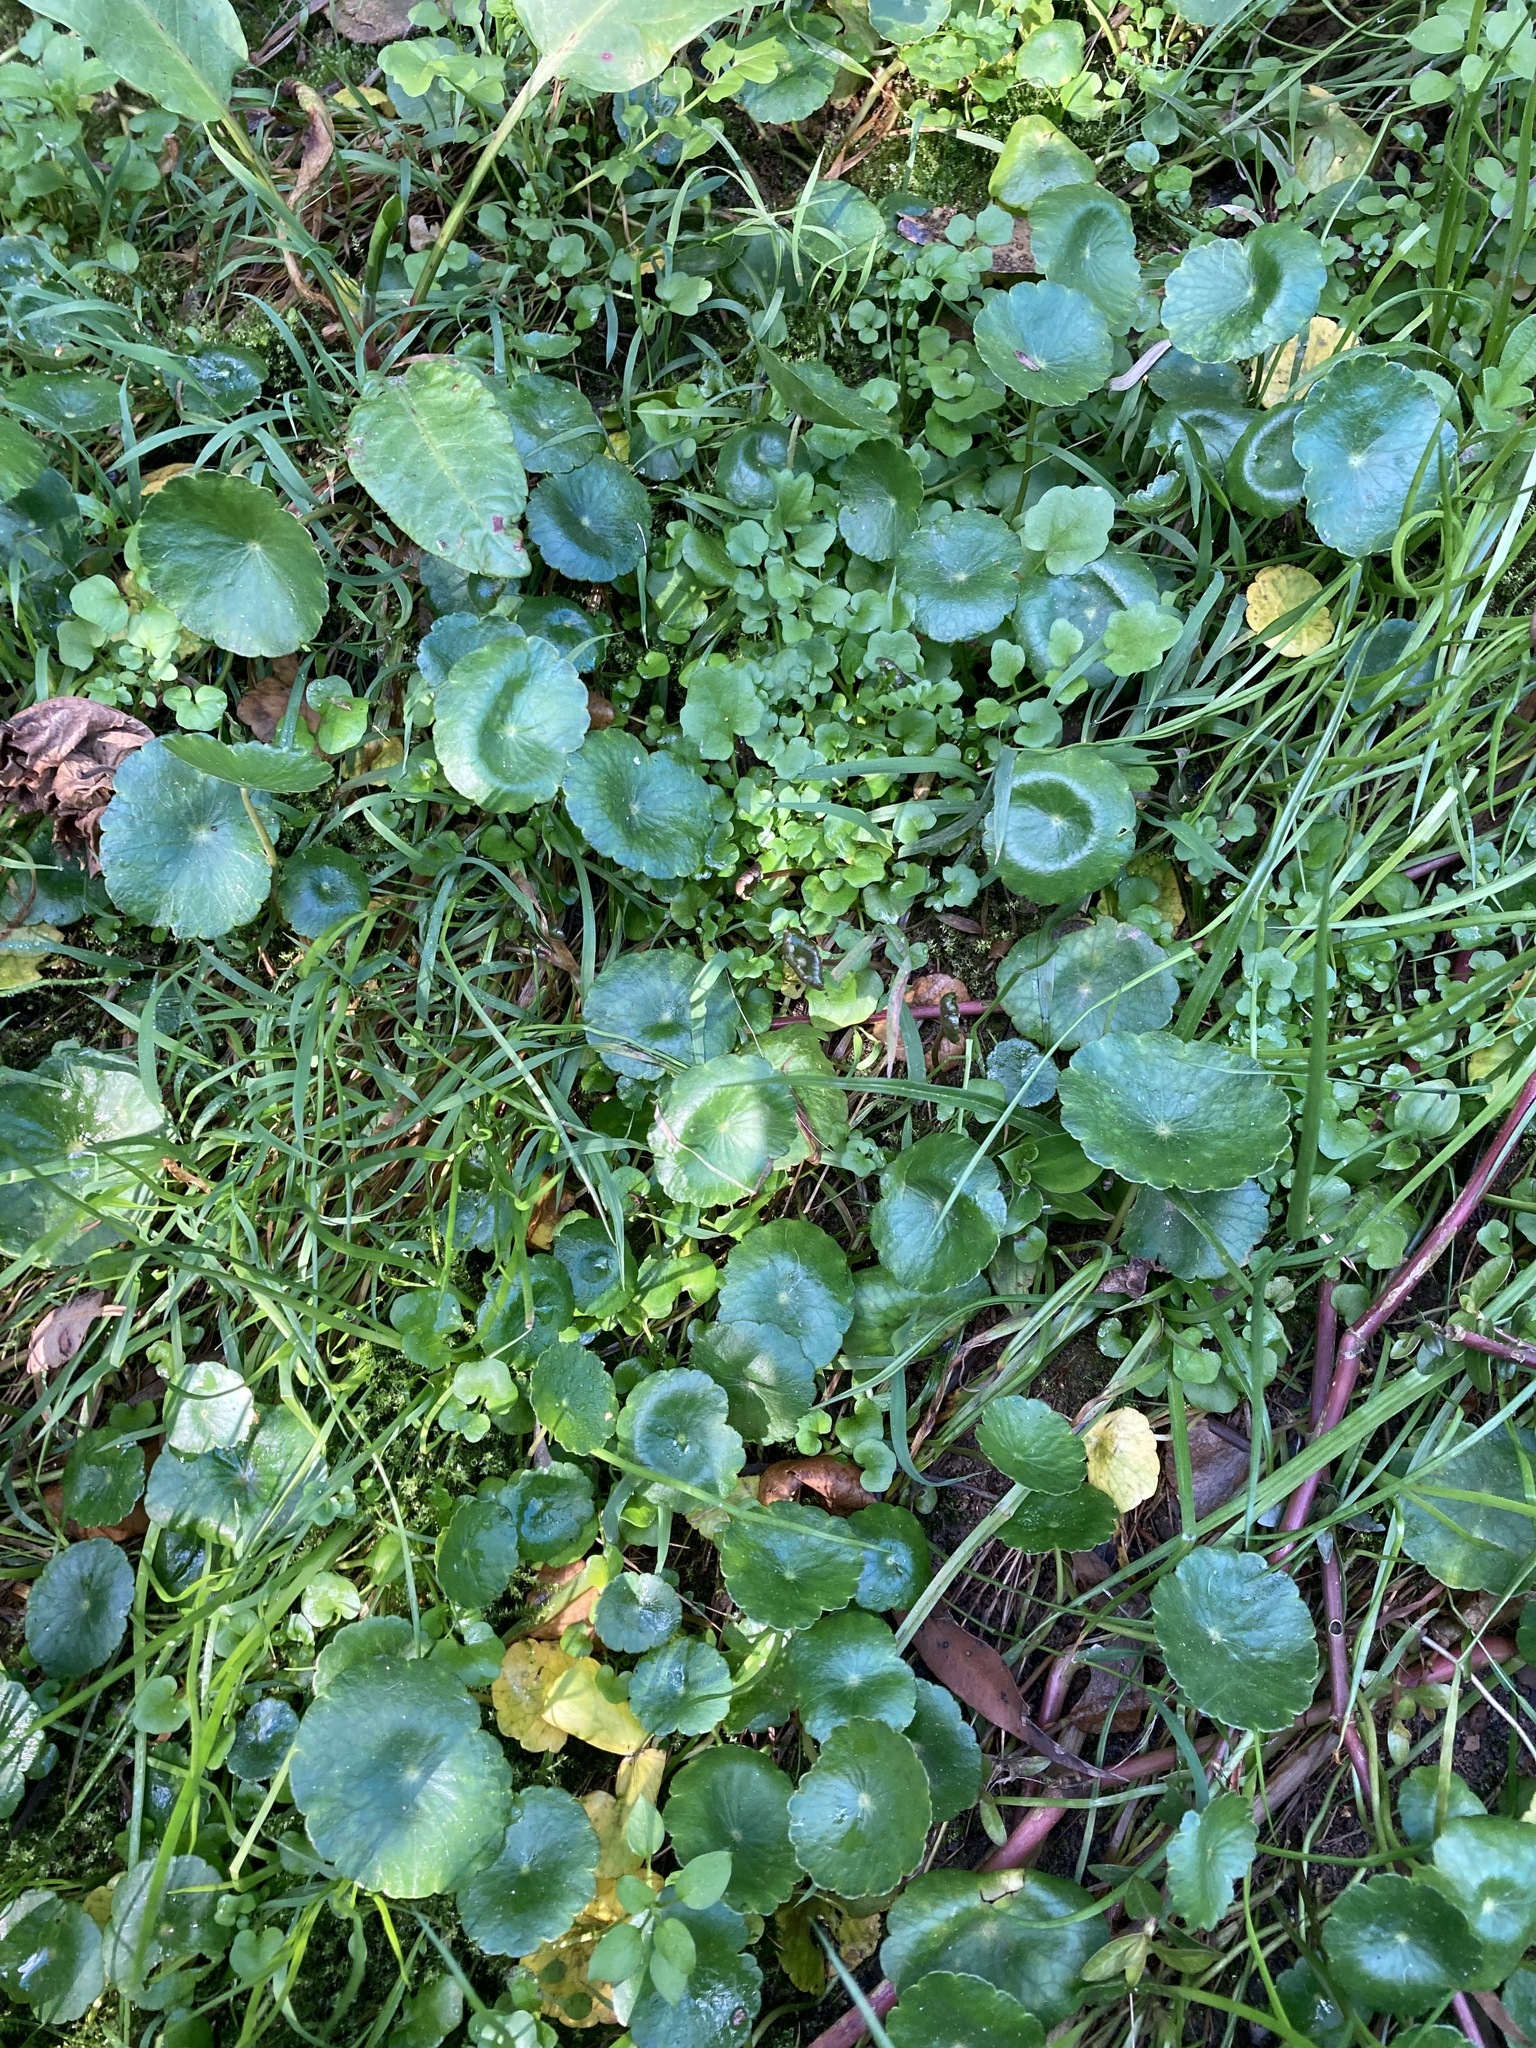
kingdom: Plantae
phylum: Tracheophyta
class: Magnoliopsida
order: Apiales
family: Araliaceae
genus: Hydrocotyle
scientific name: Hydrocotyle bonariensis
